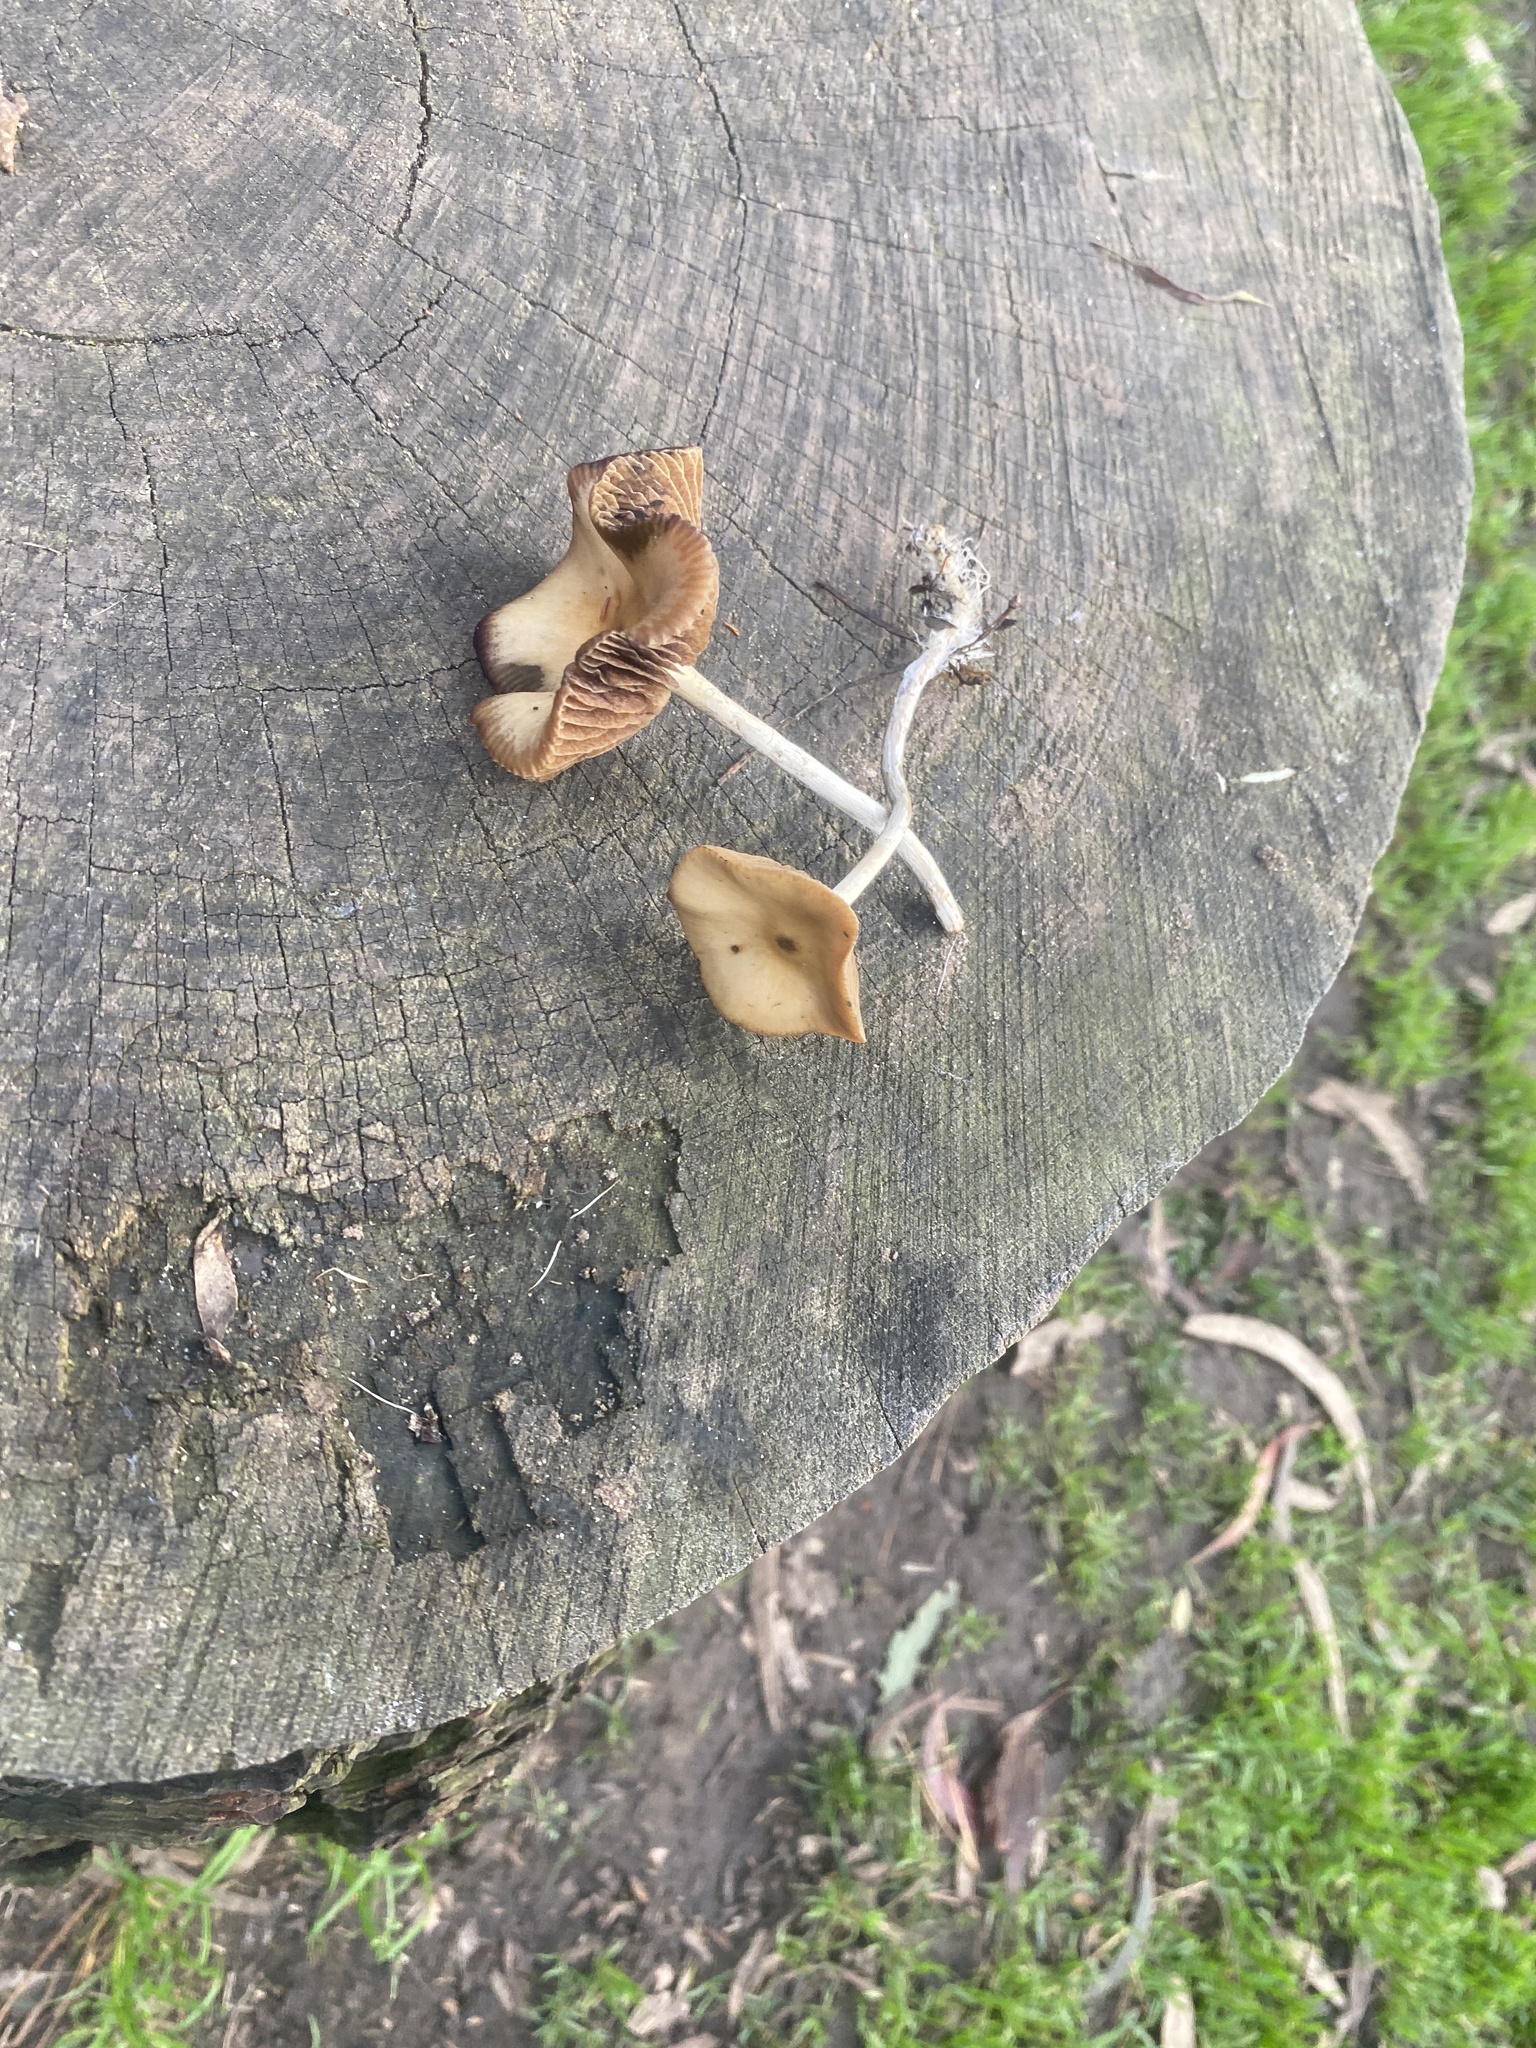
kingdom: Fungi
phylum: Basidiomycota
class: Agaricomycetes
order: Agaricales
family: Hymenogastraceae
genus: Psilocybe
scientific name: Psilocybe cyanescens
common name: Blueleg brownie
